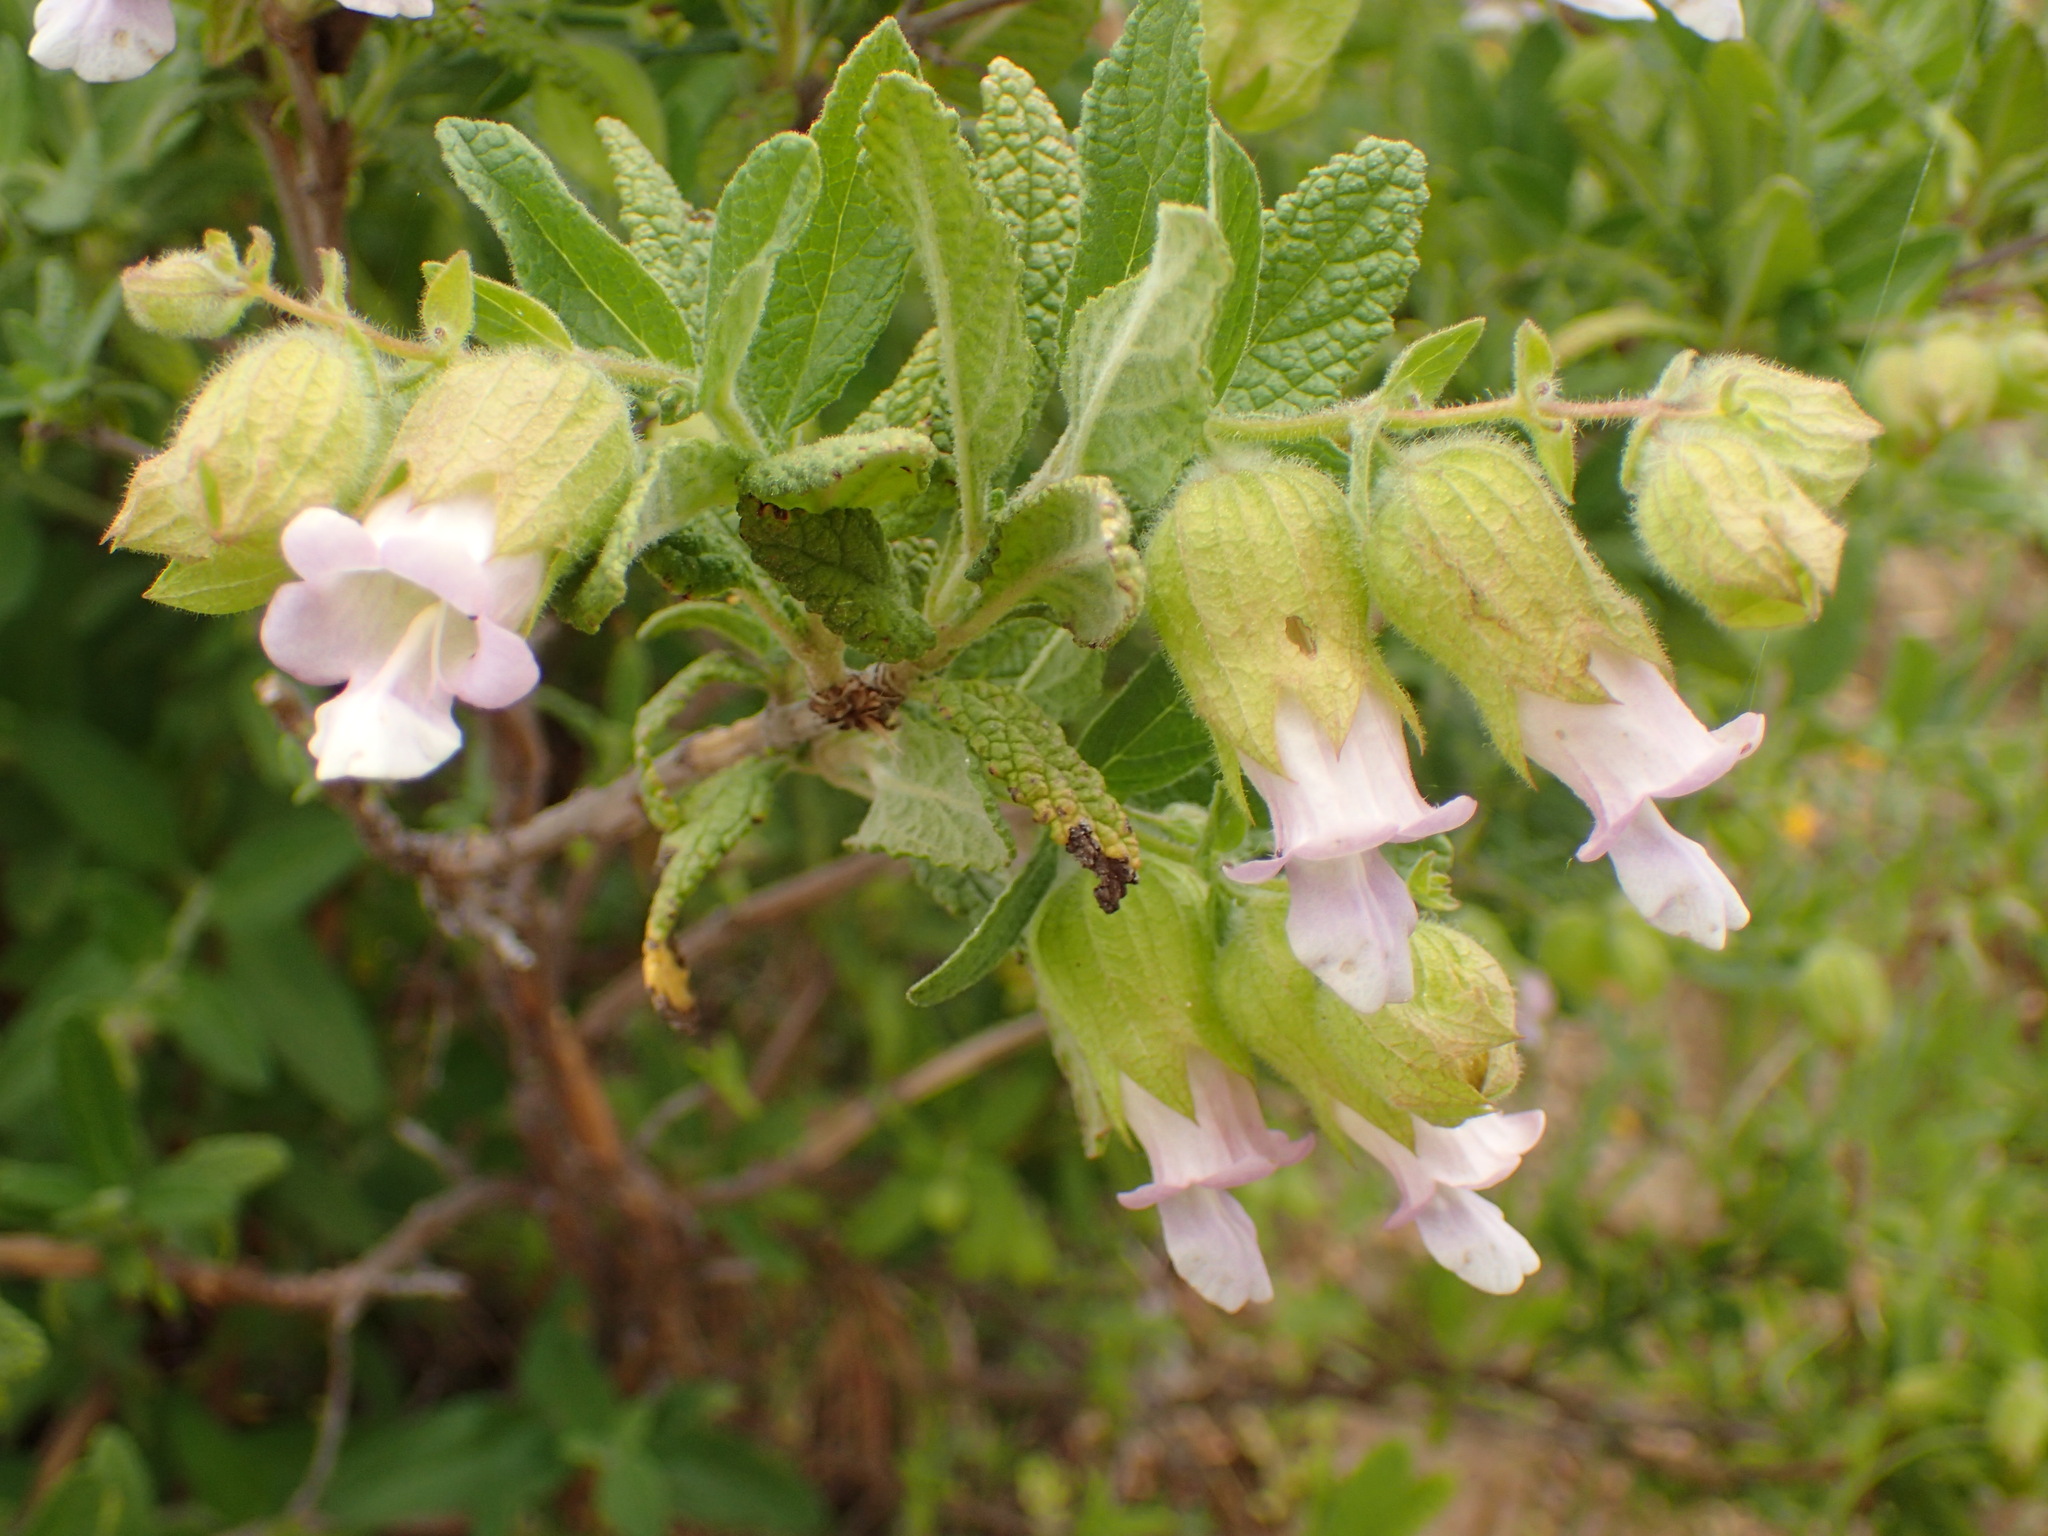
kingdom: Plantae
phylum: Tracheophyta
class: Magnoliopsida
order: Lamiales
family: Lamiaceae
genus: Lepechinia
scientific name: Lepechinia calycina
